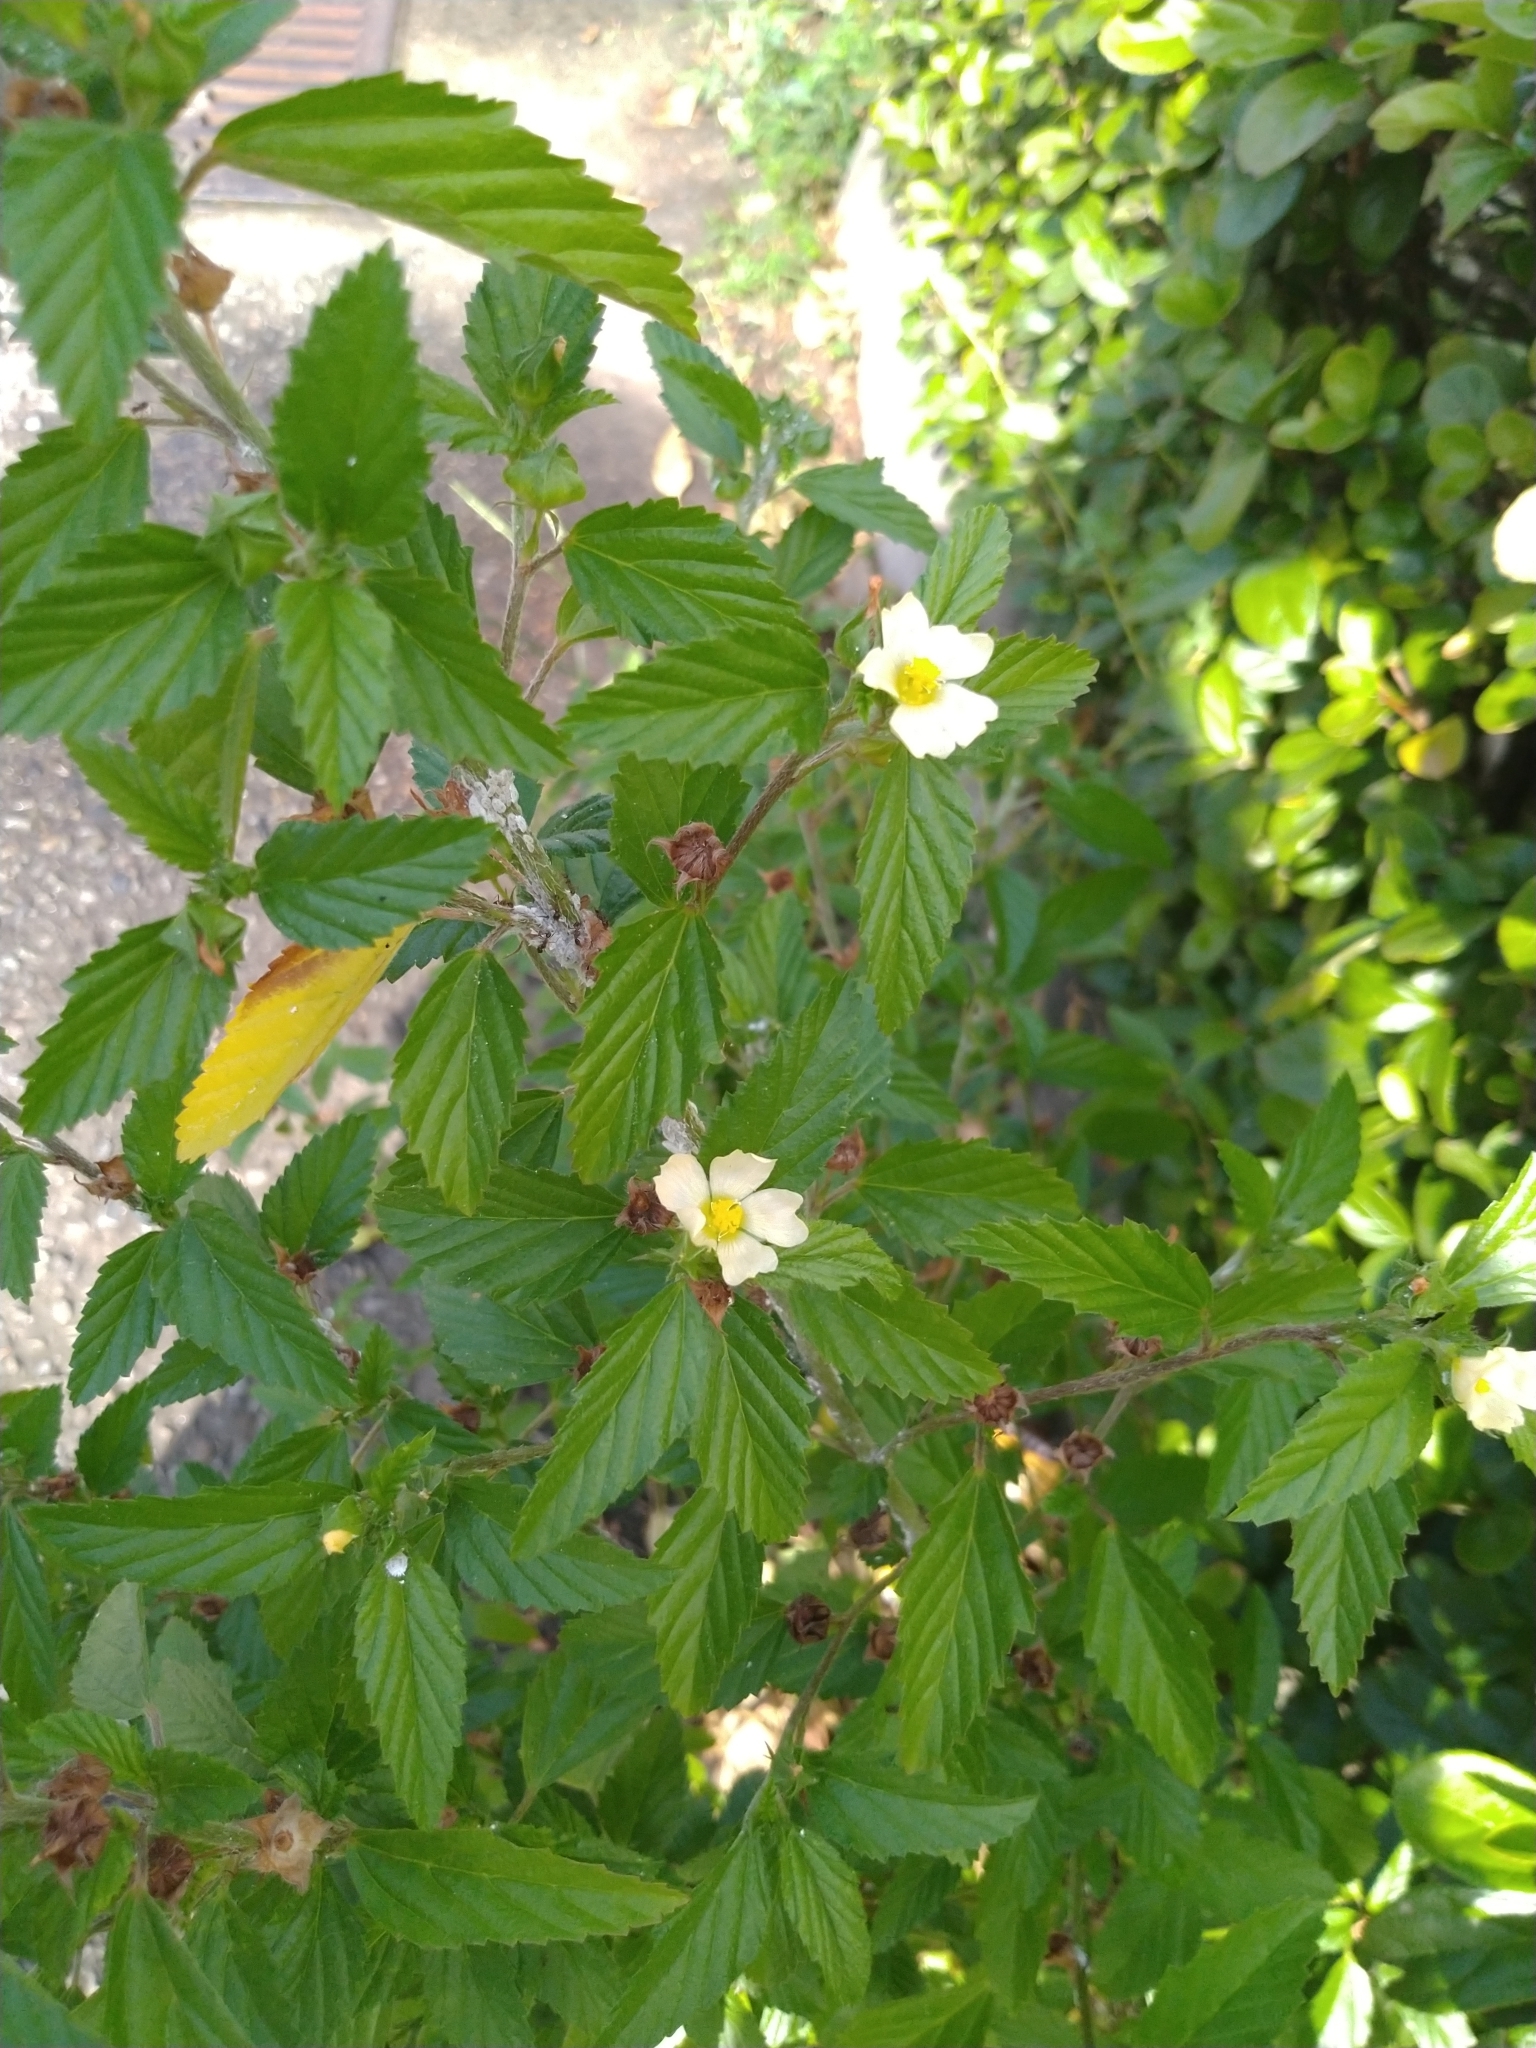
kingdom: Plantae
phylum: Tracheophyta
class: Magnoliopsida
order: Malvales
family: Malvaceae
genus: Malvastrum
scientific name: Malvastrum coromandelianum
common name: Threelobe false mallow
